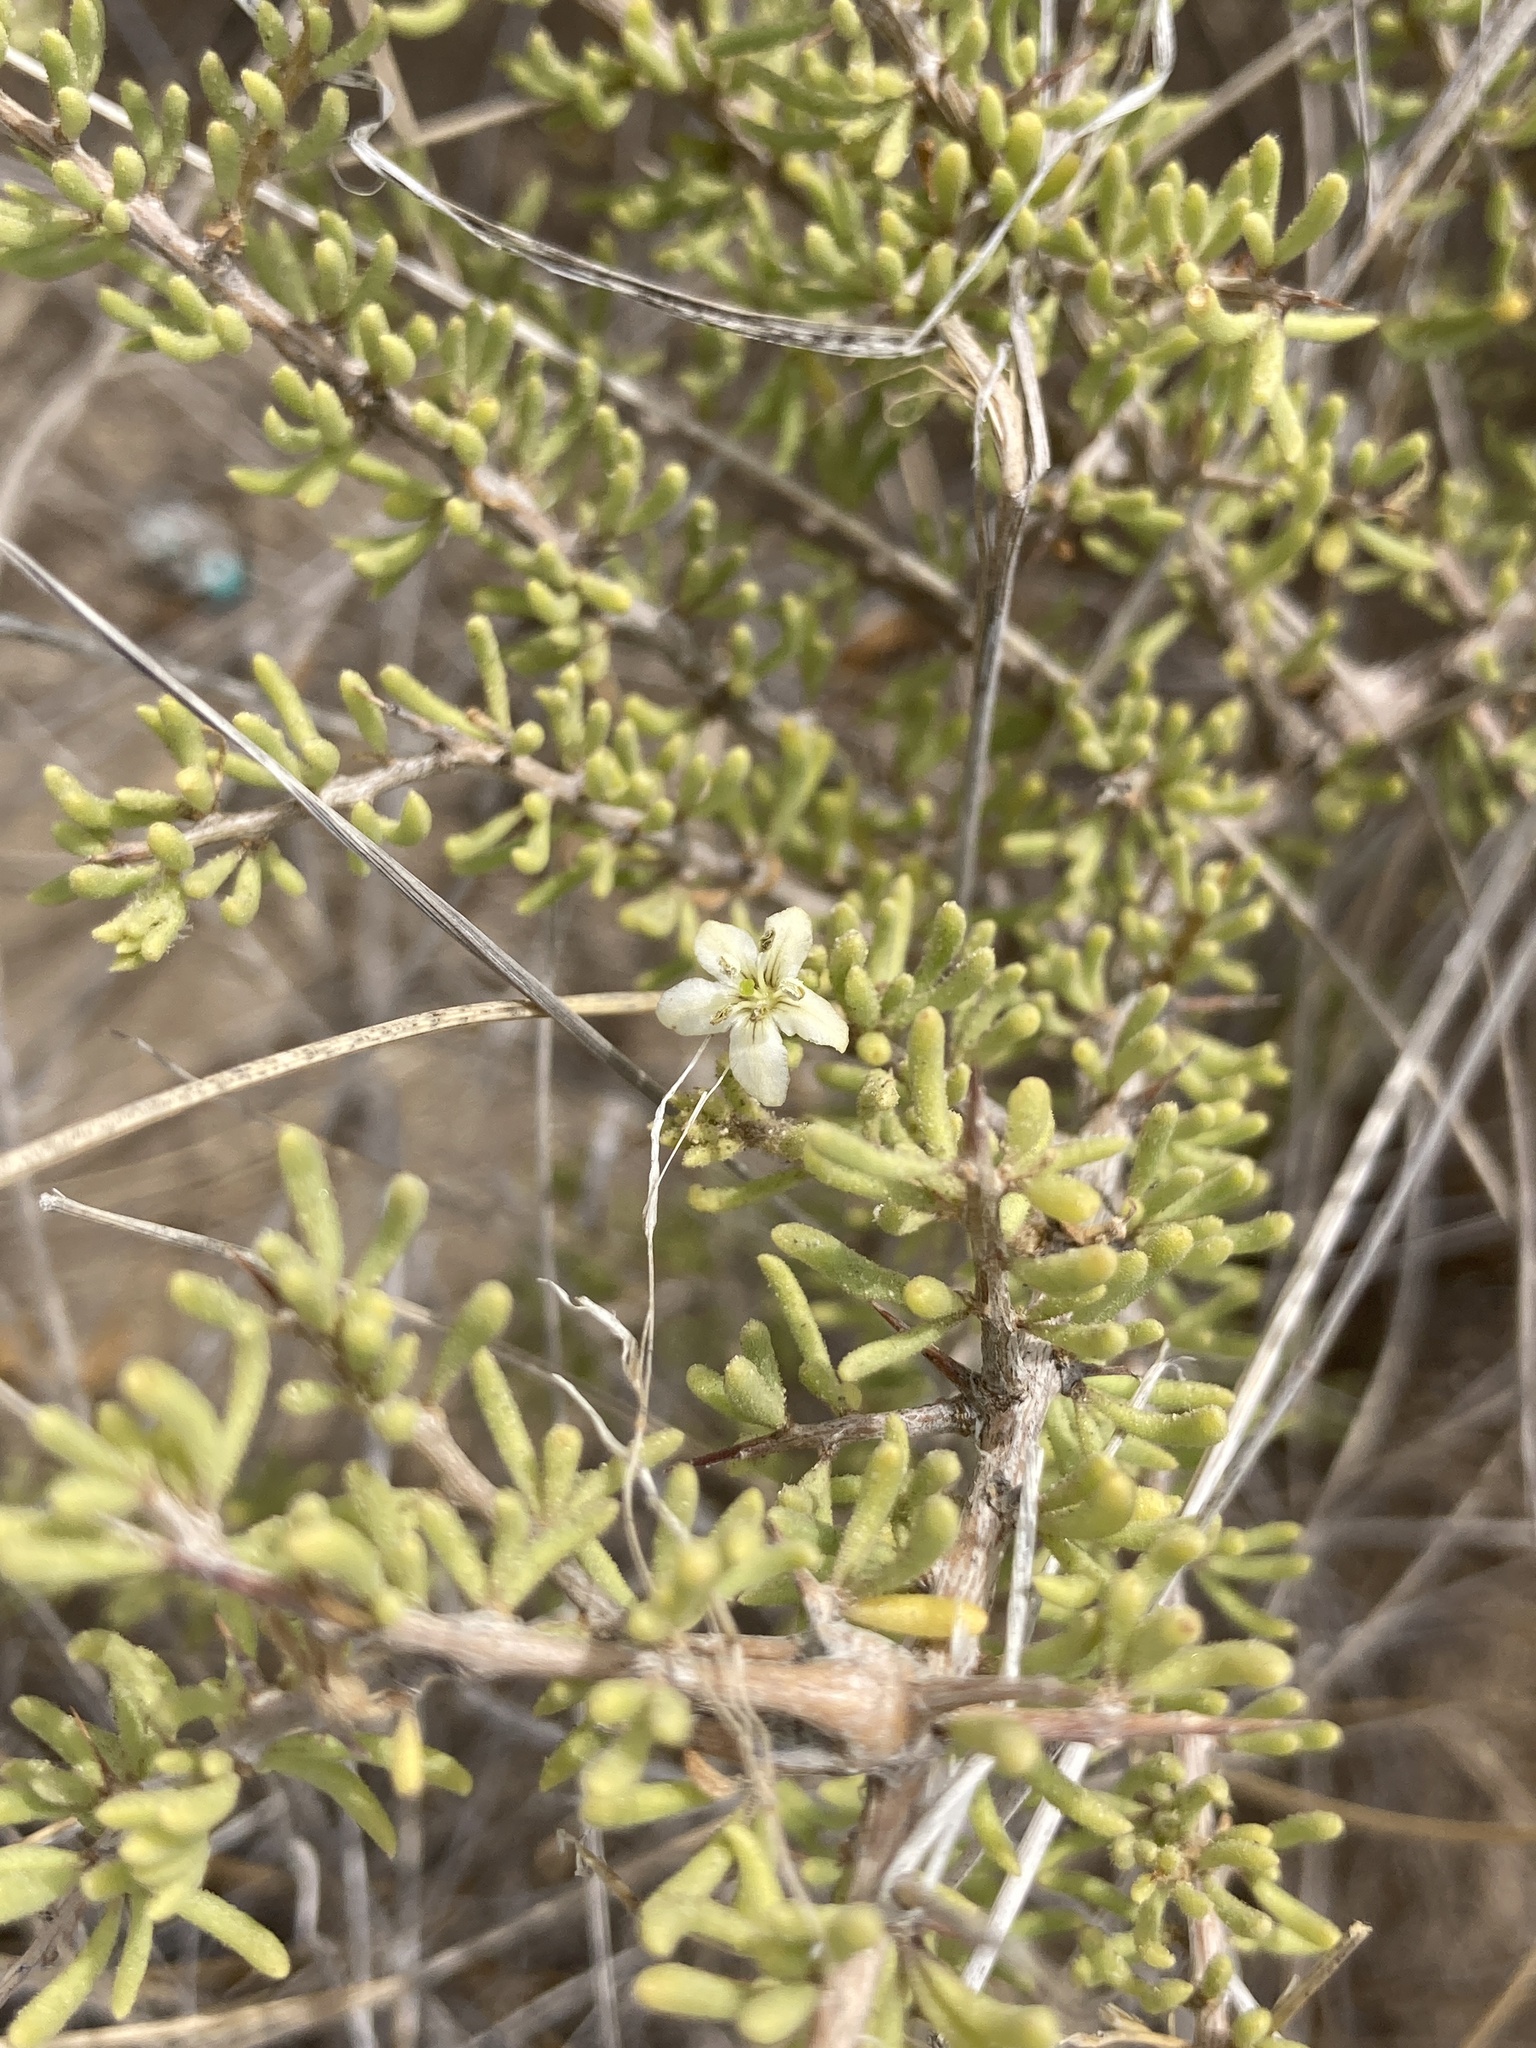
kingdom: Plantae
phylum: Tracheophyta
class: Magnoliopsida
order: Solanales
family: Solanaceae
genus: Lycium
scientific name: Lycium infaustum
